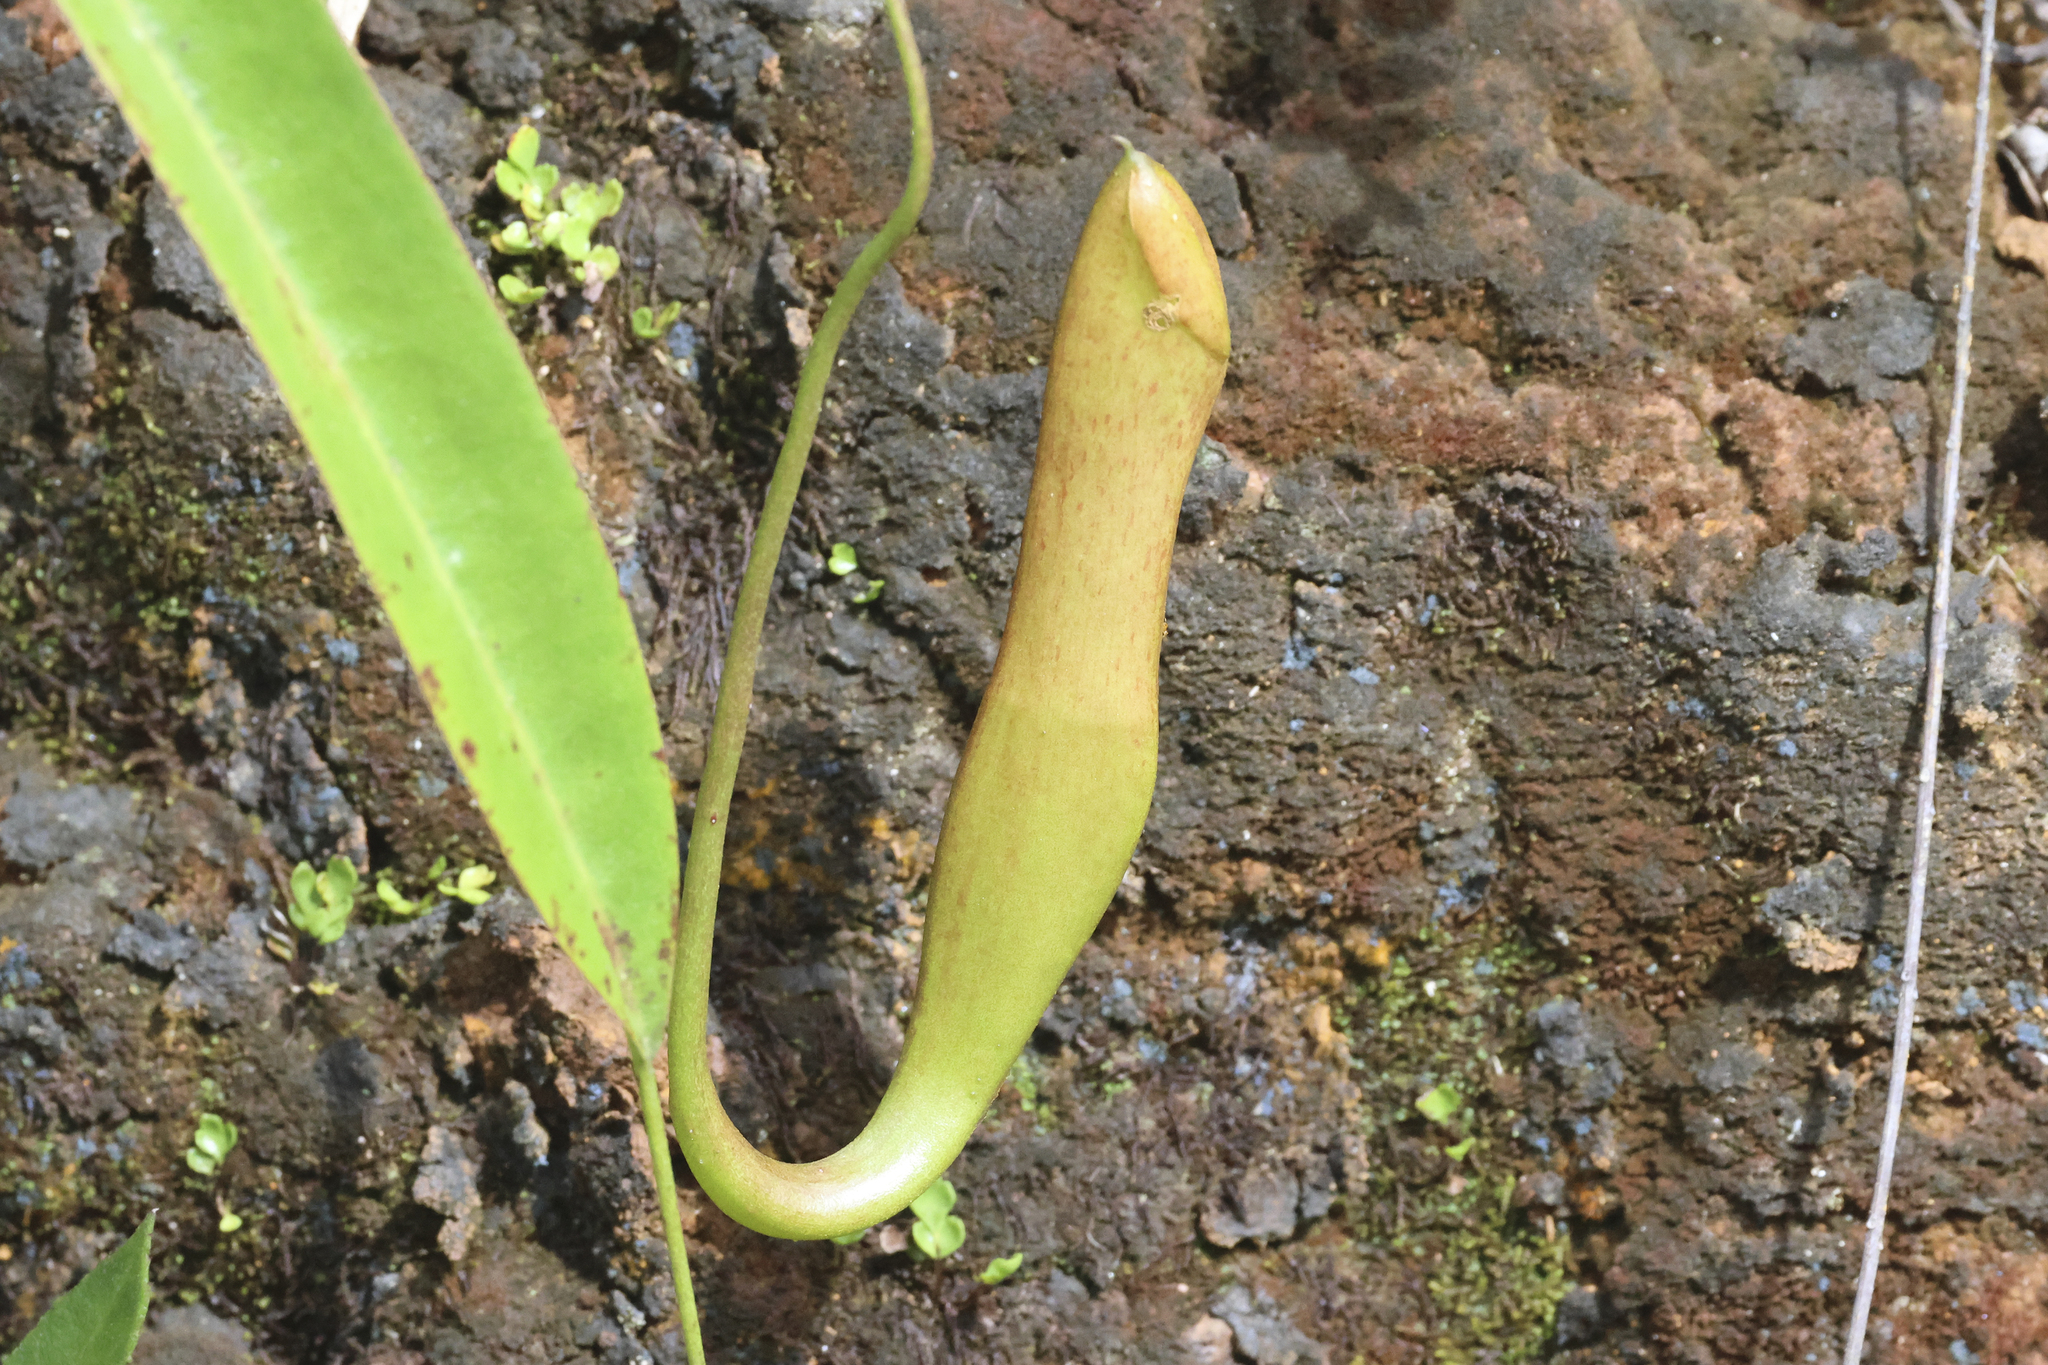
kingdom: Plantae
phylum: Tracheophyta
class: Magnoliopsida
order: Caryophyllales
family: Nepenthaceae
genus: Nepenthes
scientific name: Nepenthes reinwardtiana
